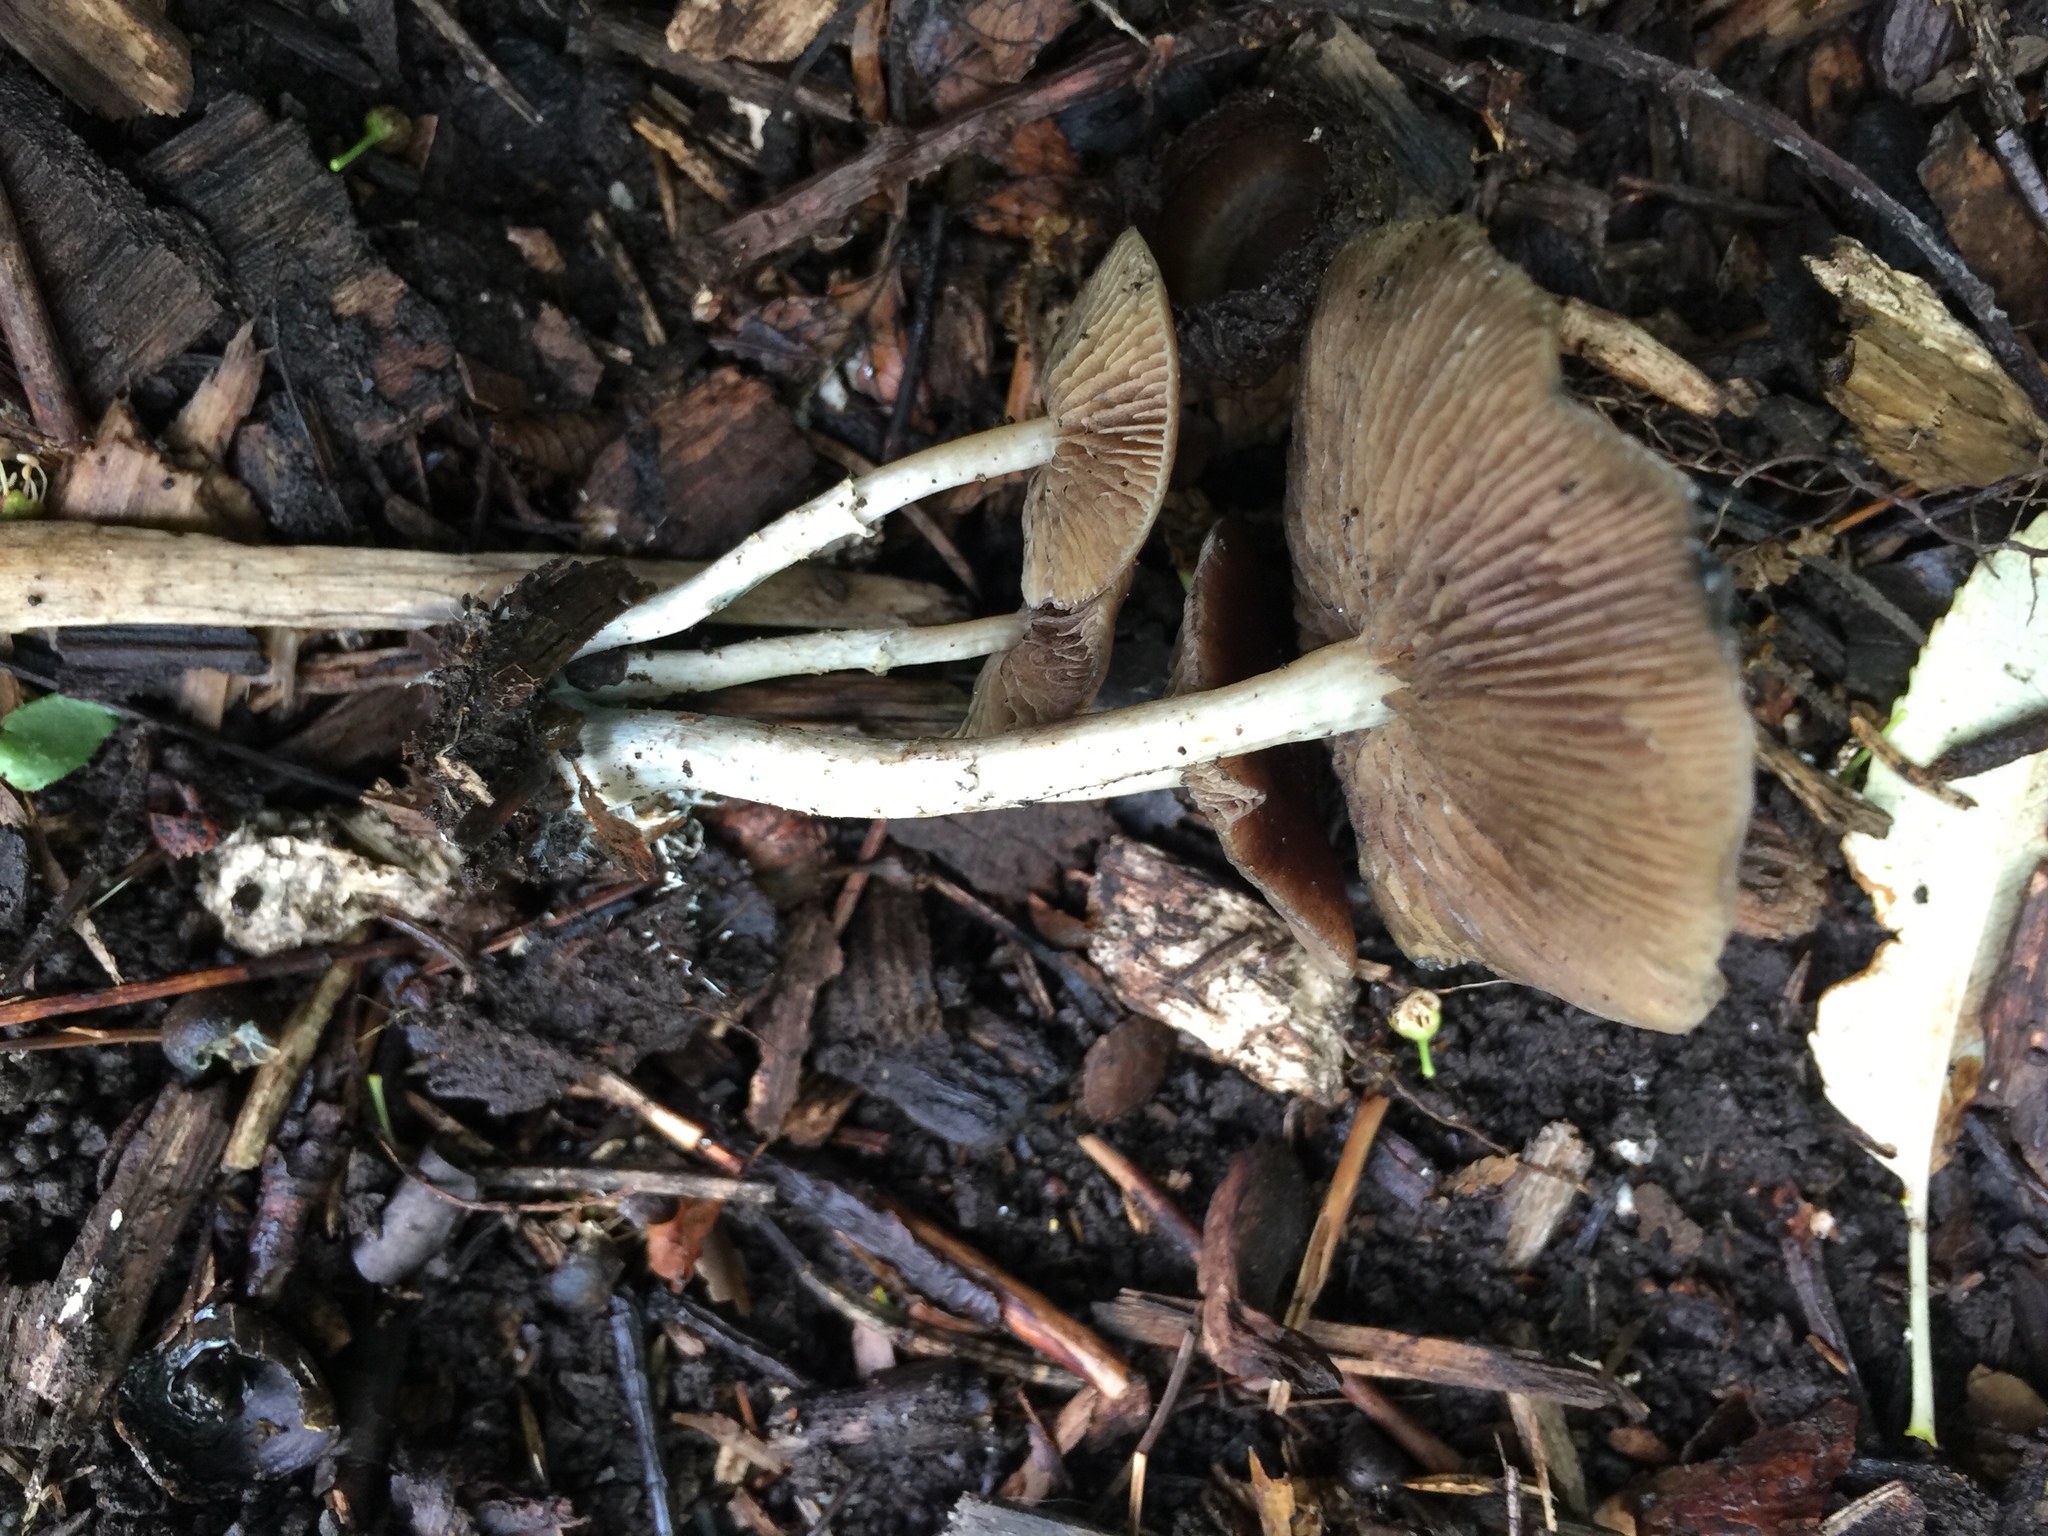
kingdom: Fungi
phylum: Basidiomycota
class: Agaricomycetes
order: Agaricales
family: Hymenogastraceae
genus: Psilocybe
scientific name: Psilocybe ovoideocystidiata
